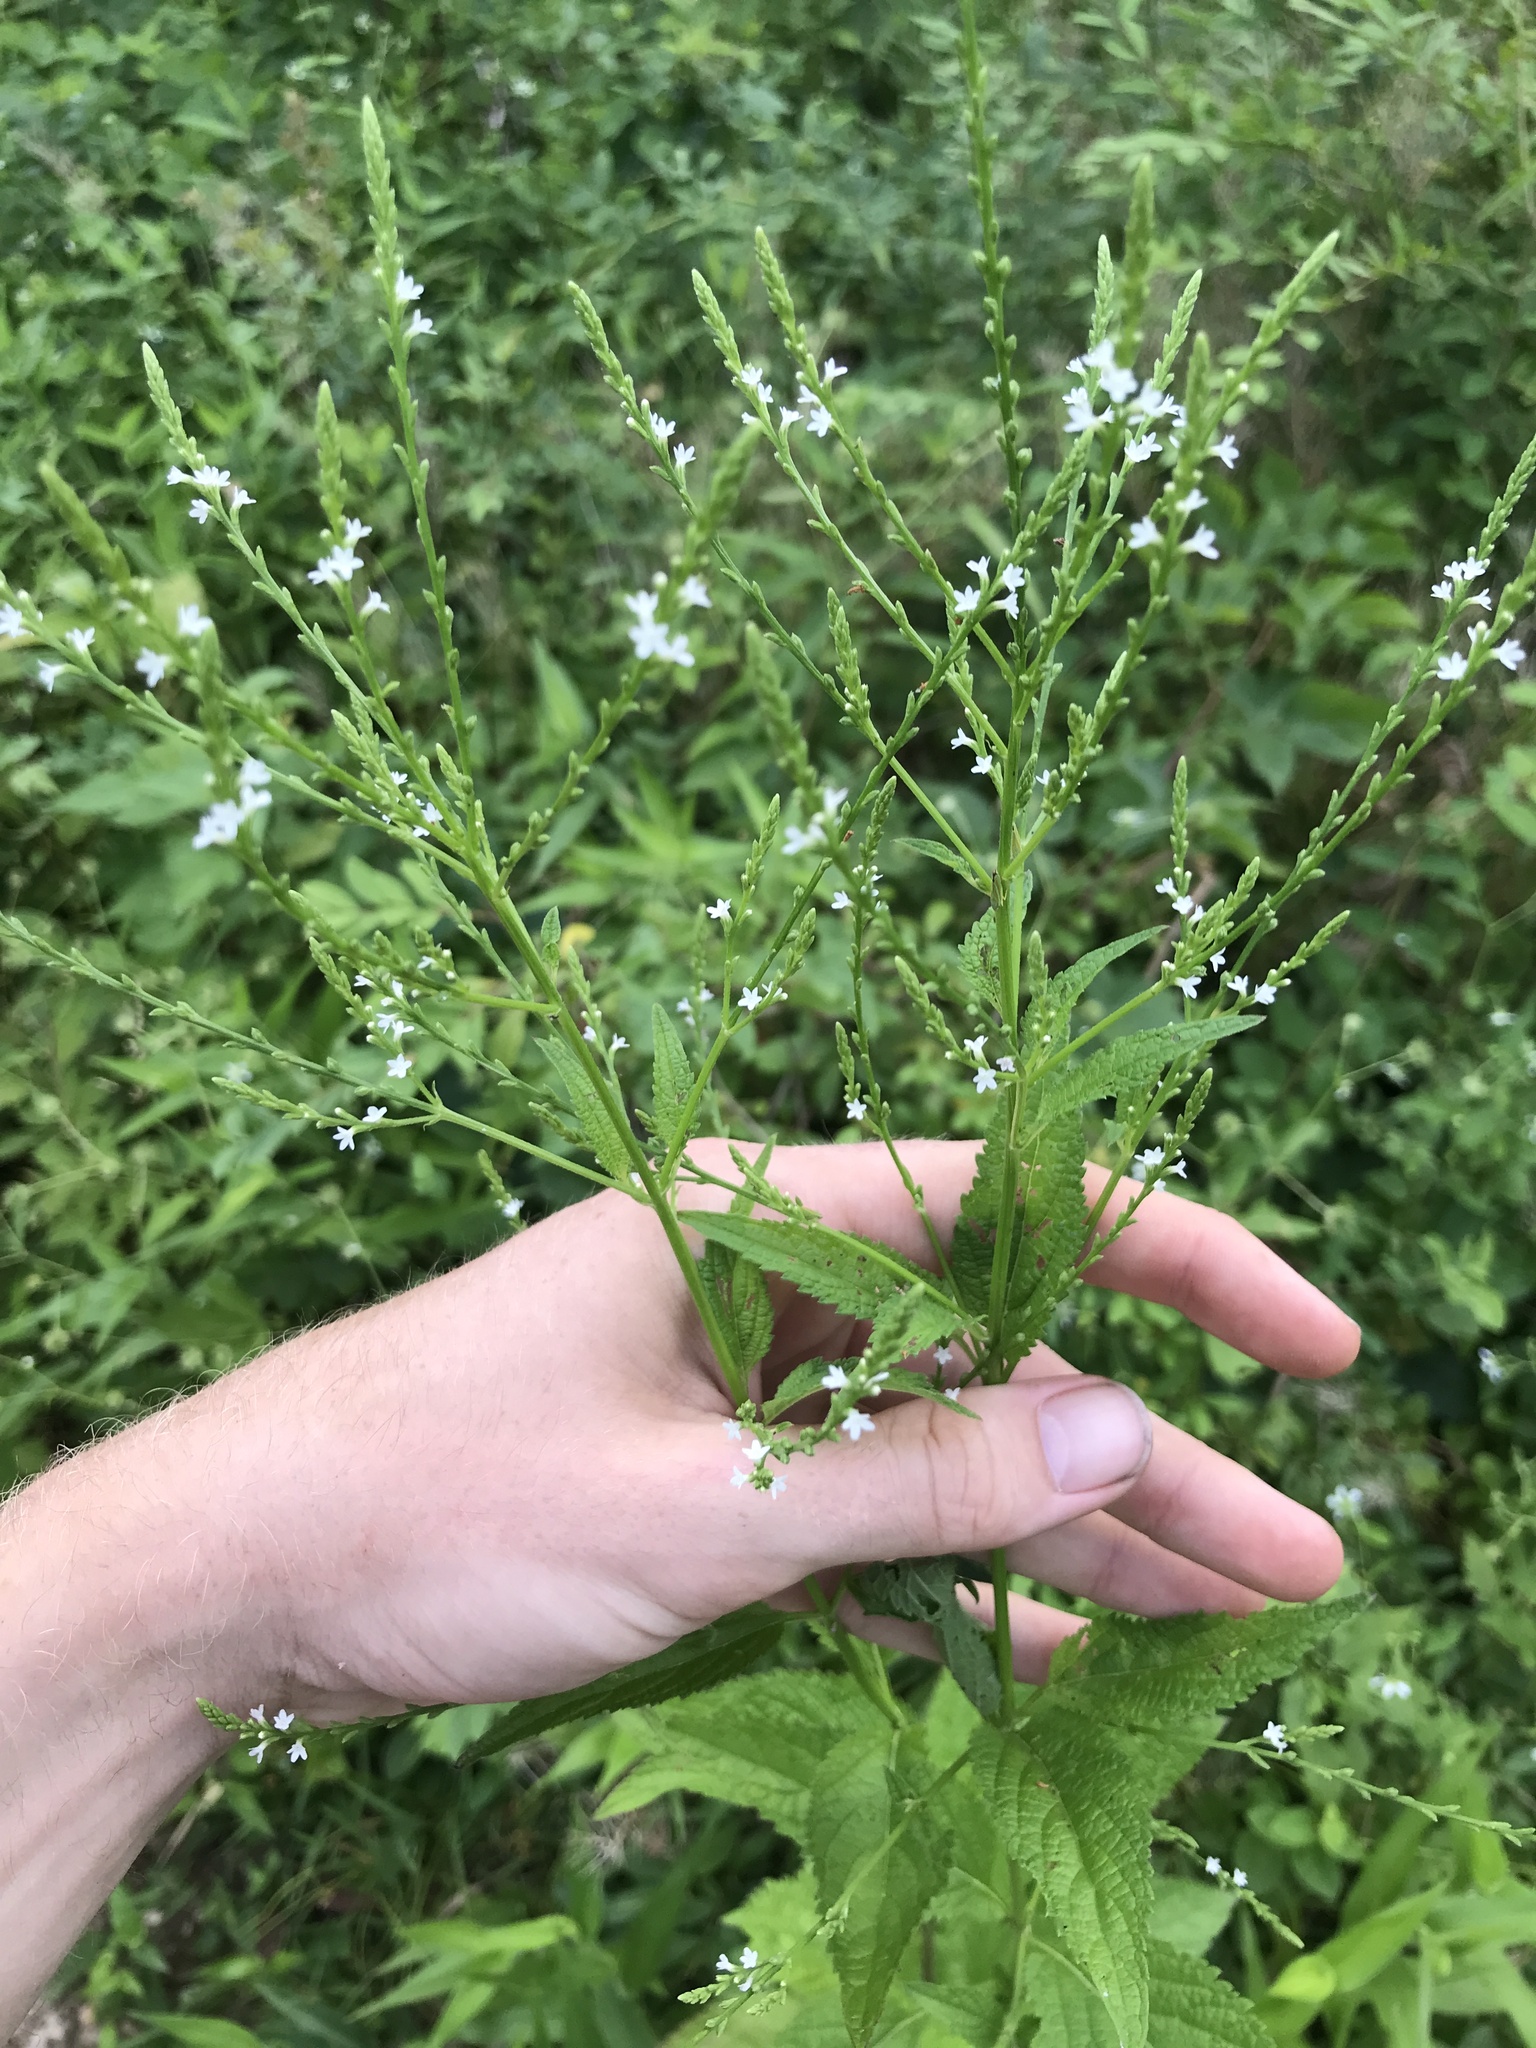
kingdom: Plantae
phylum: Tracheophyta
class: Magnoliopsida
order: Lamiales
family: Verbenaceae
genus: Verbena
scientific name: Verbena urticifolia
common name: Nettle-leaved vervain
